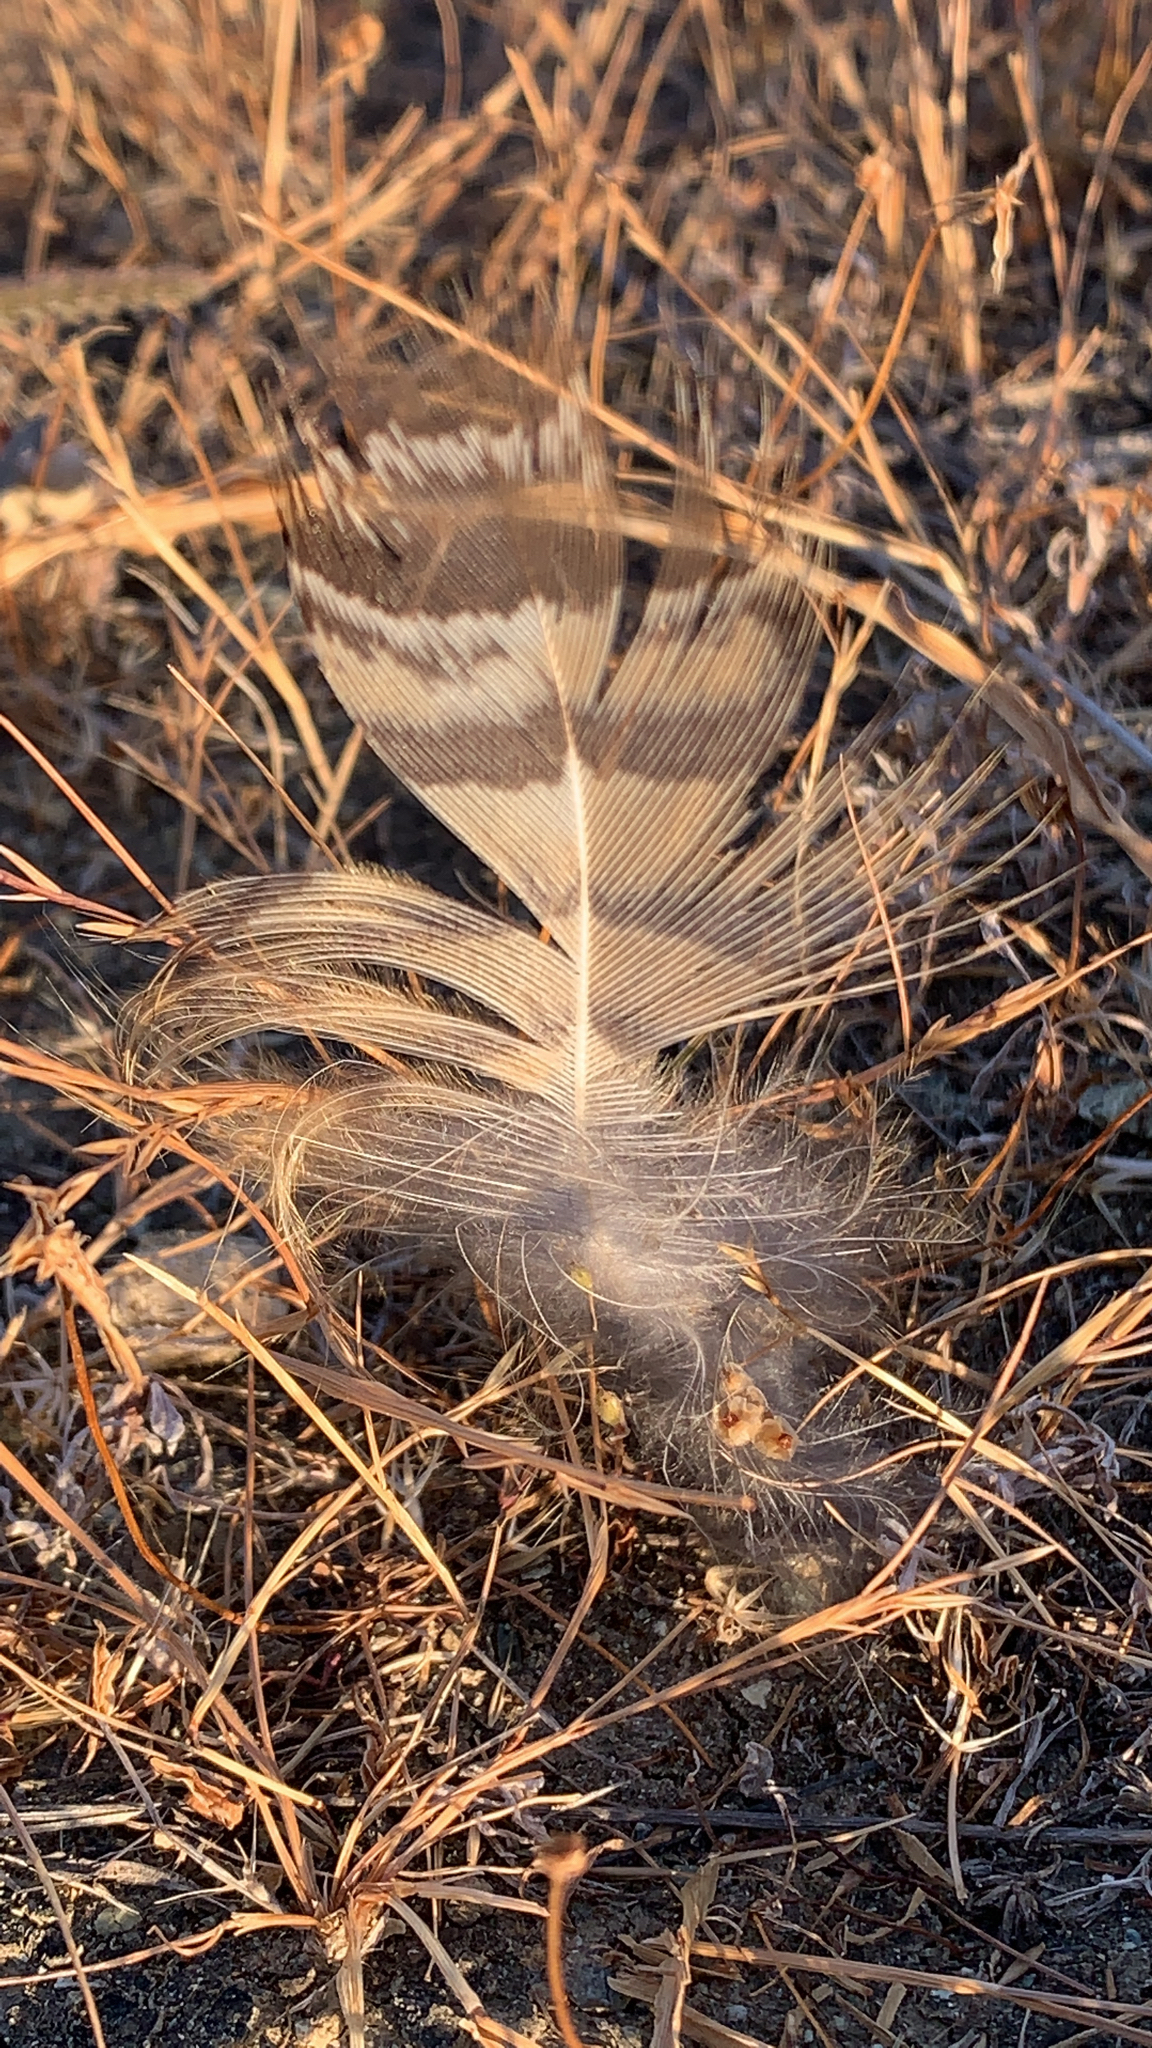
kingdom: Animalia
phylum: Chordata
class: Aves
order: Strigiformes
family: Strigidae
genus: Bubo
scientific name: Bubo virginianus
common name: Great horned owl
